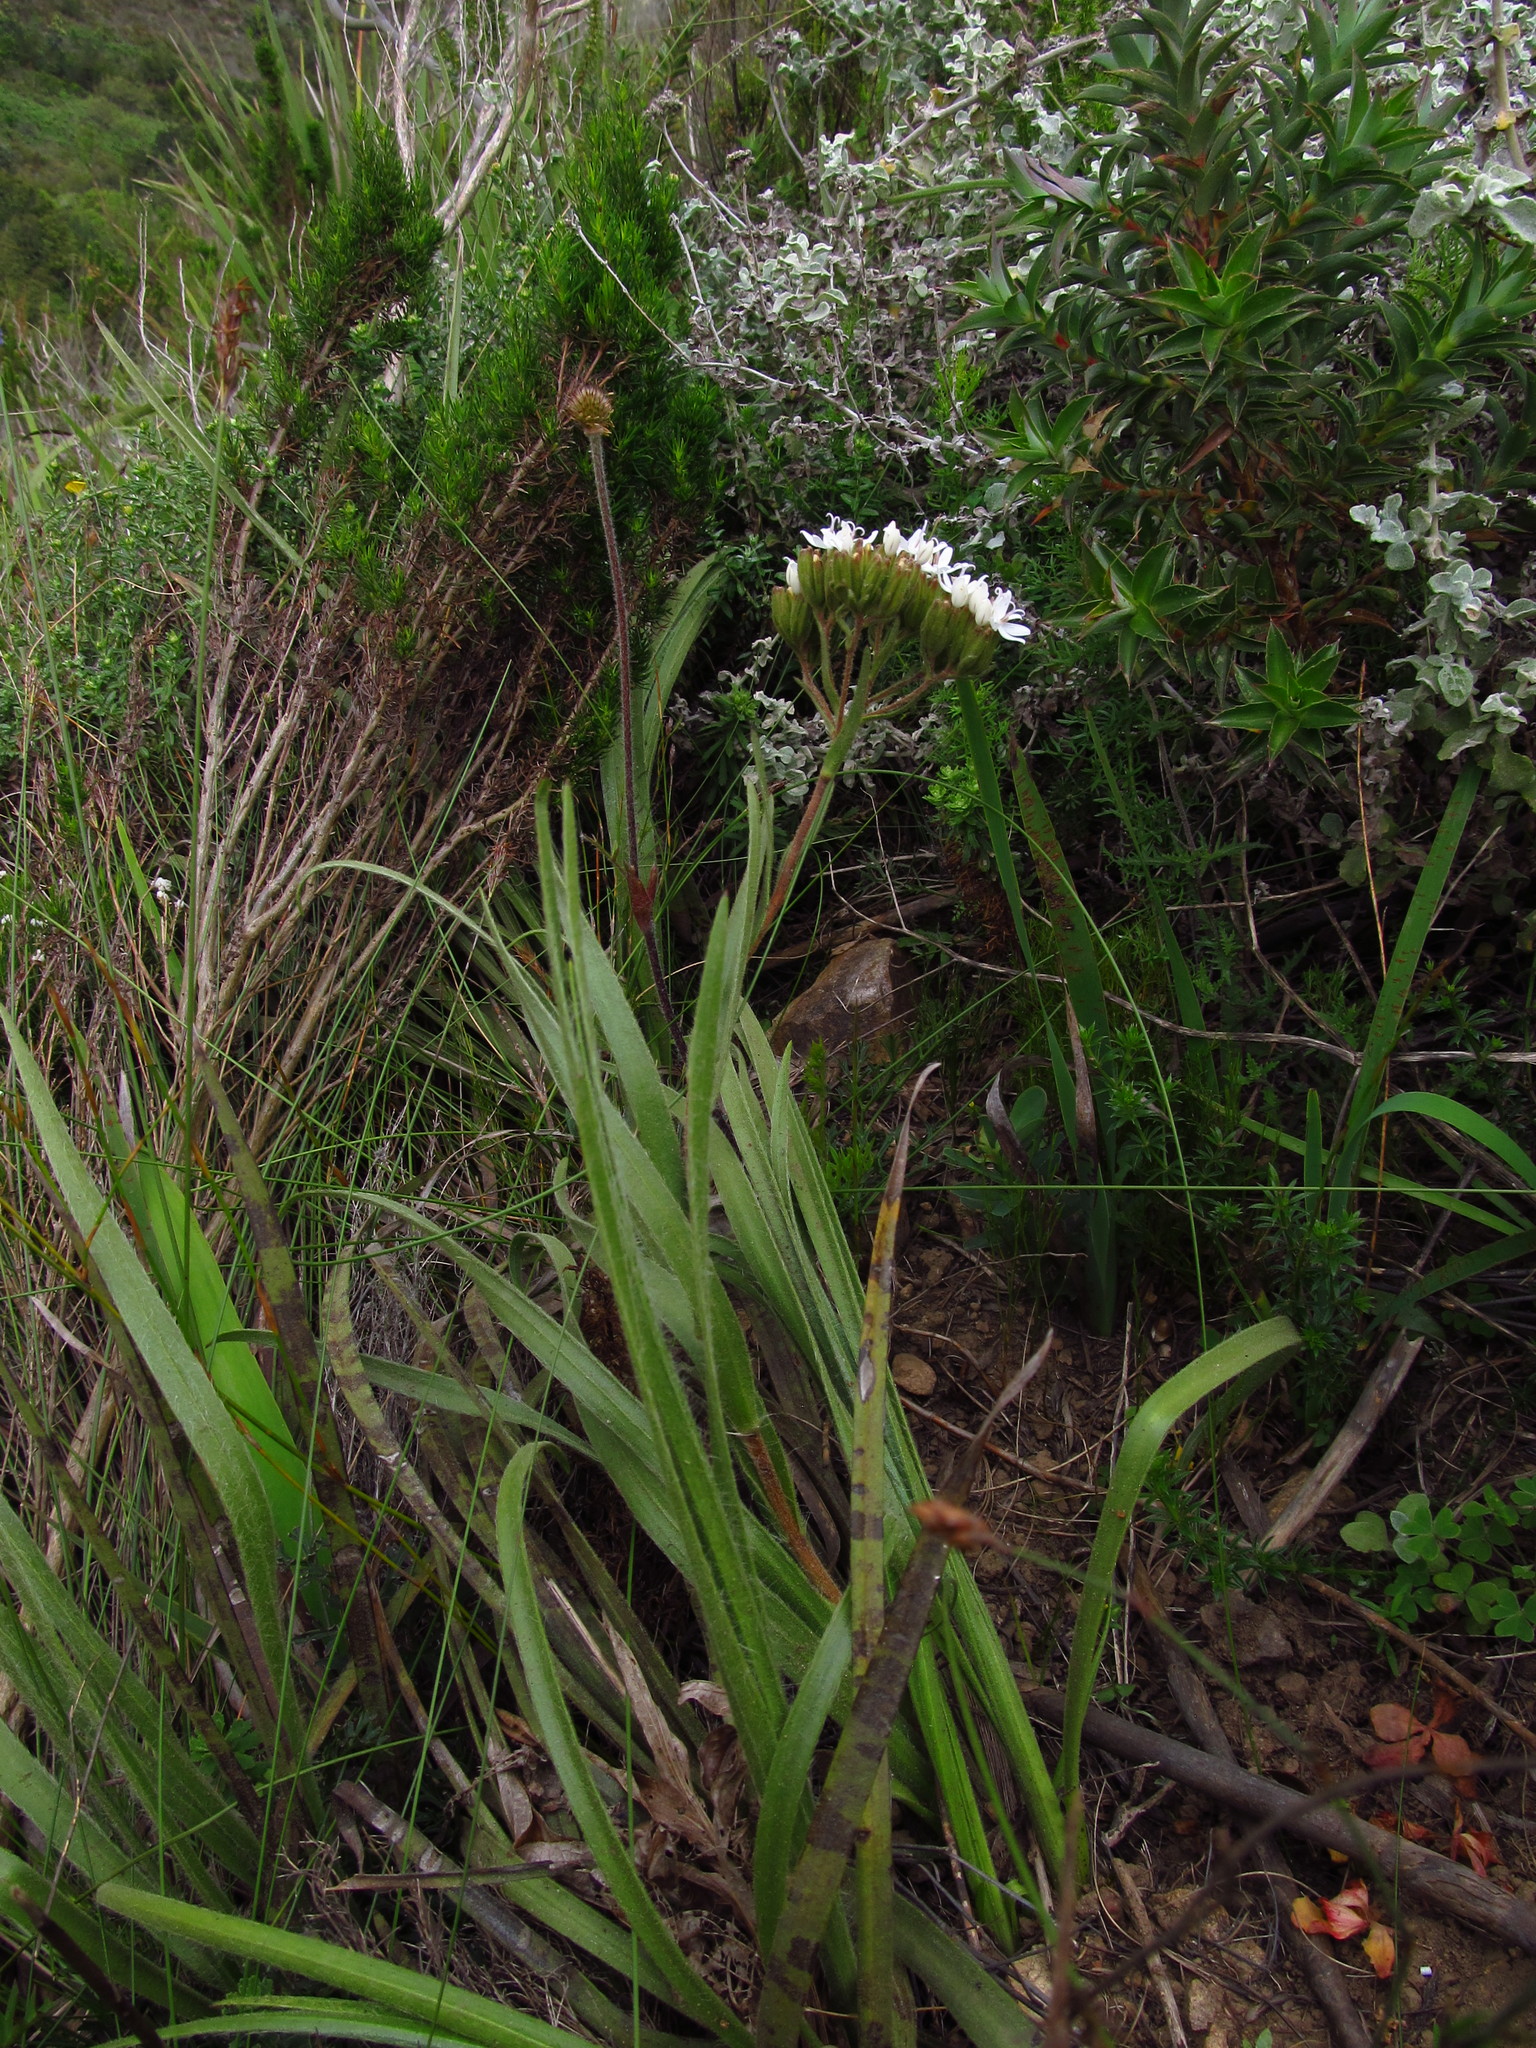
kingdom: Plantae
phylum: Tracheophyta
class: Magnoliopsida
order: Asterales
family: Asteraceae
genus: Corymbium
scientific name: Corymbium villosum
